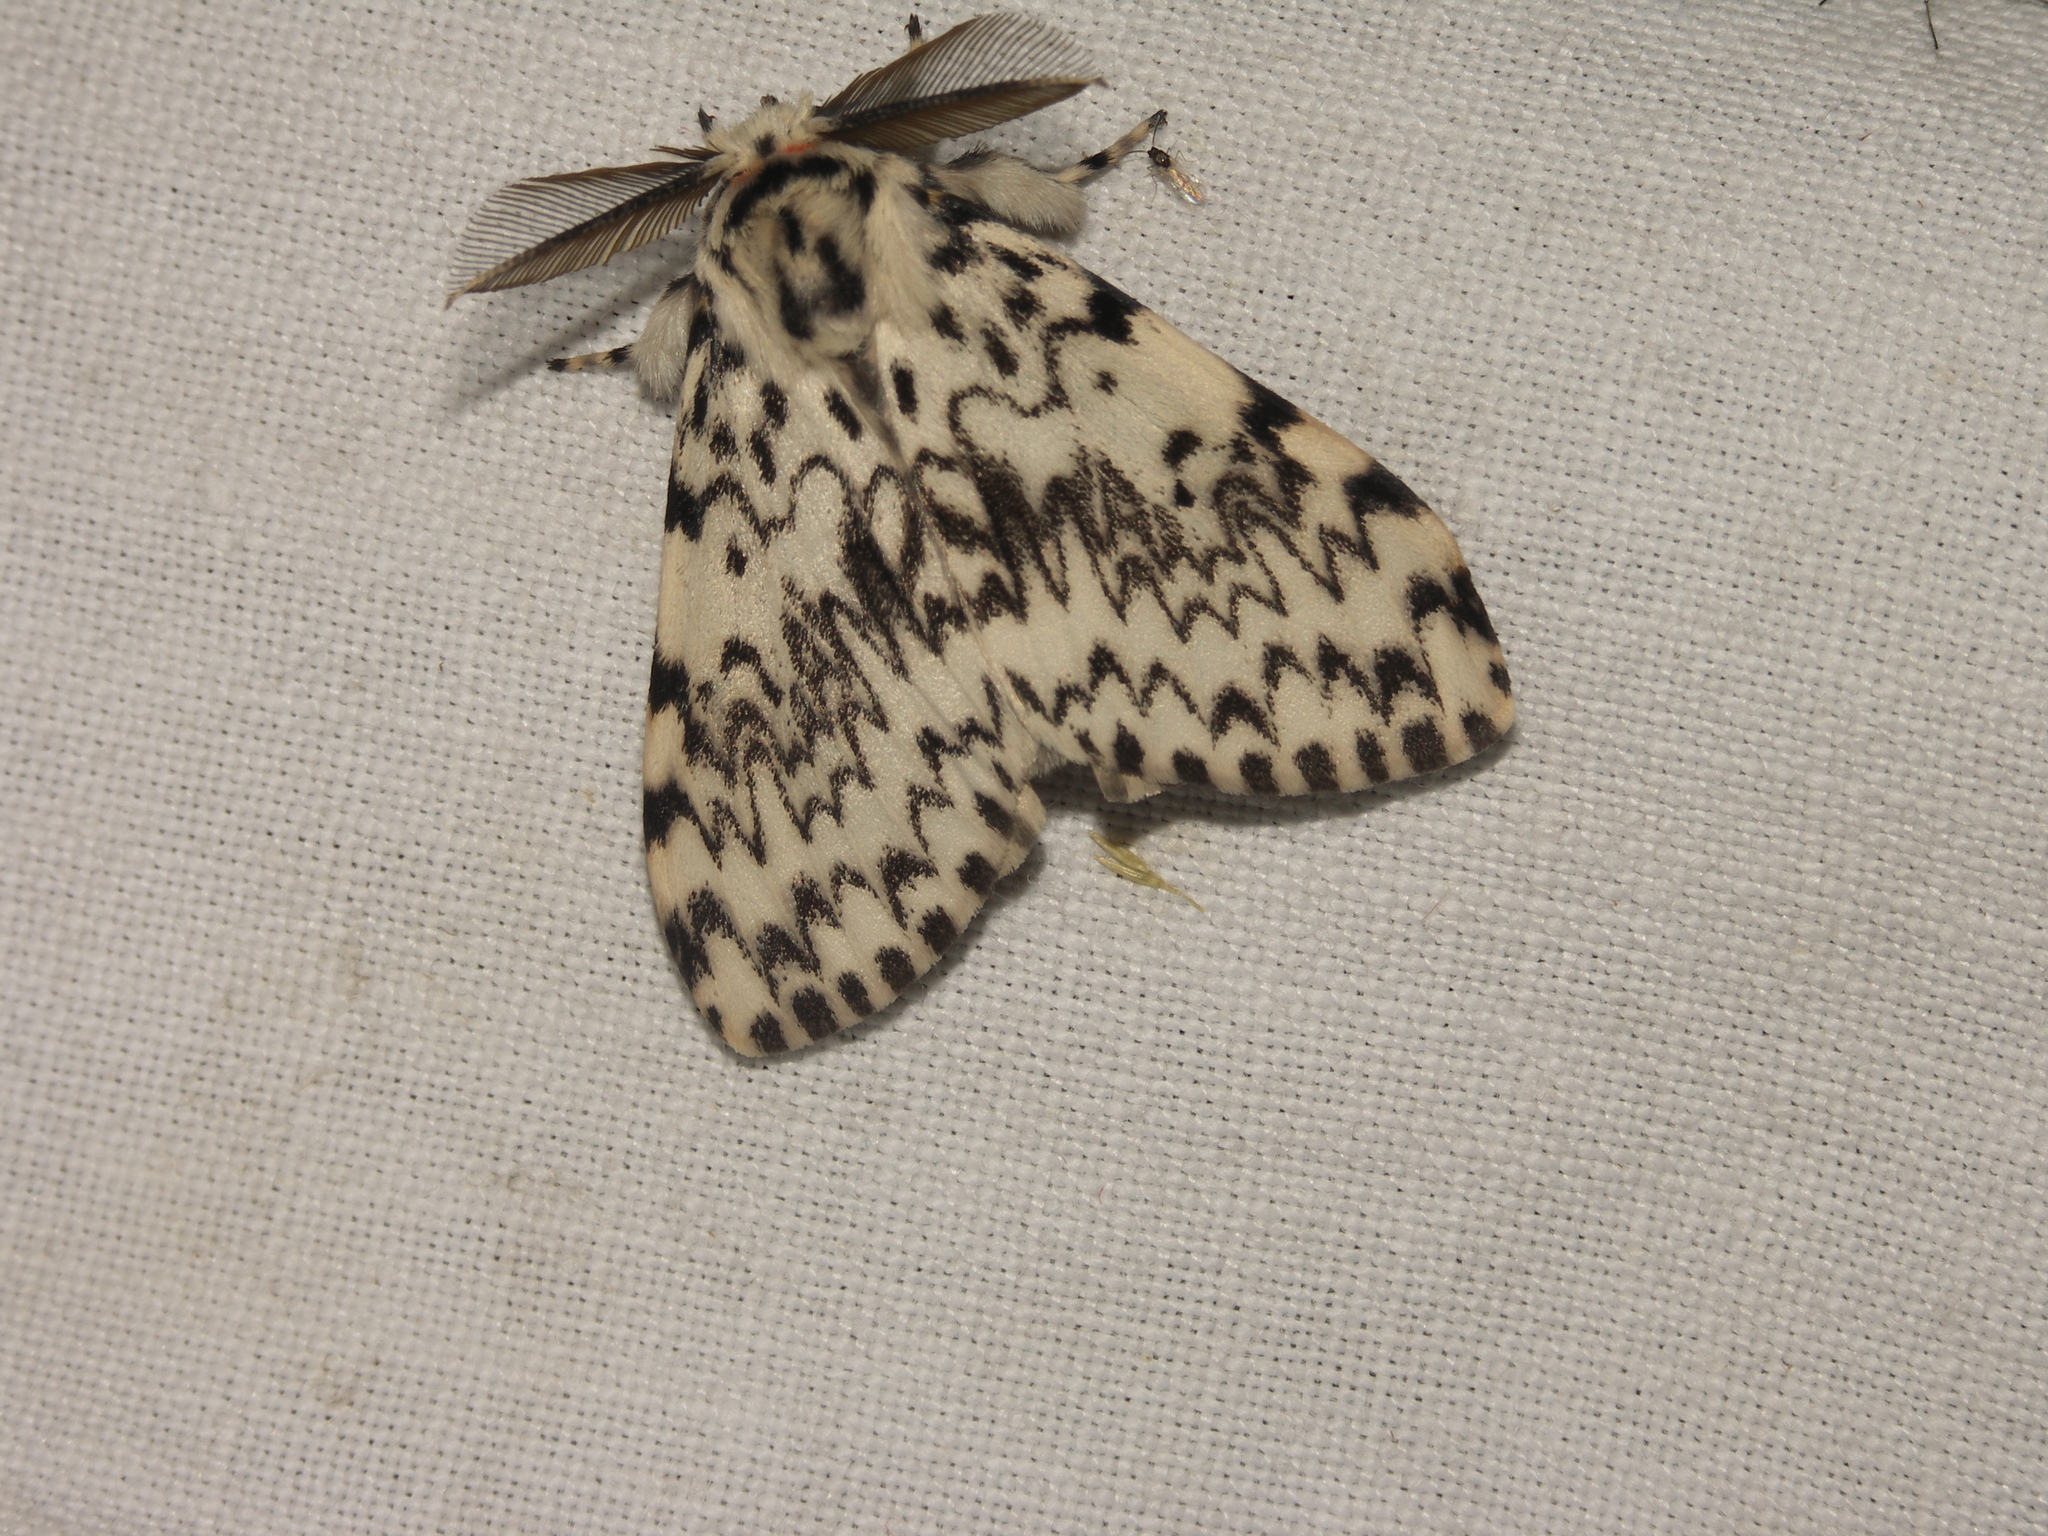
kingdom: Animalia
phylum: Arthropoda
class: Insecta
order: Lepidoptera
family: Erebidae
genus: Lymantria
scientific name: Lymantria monacha
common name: Black arches
